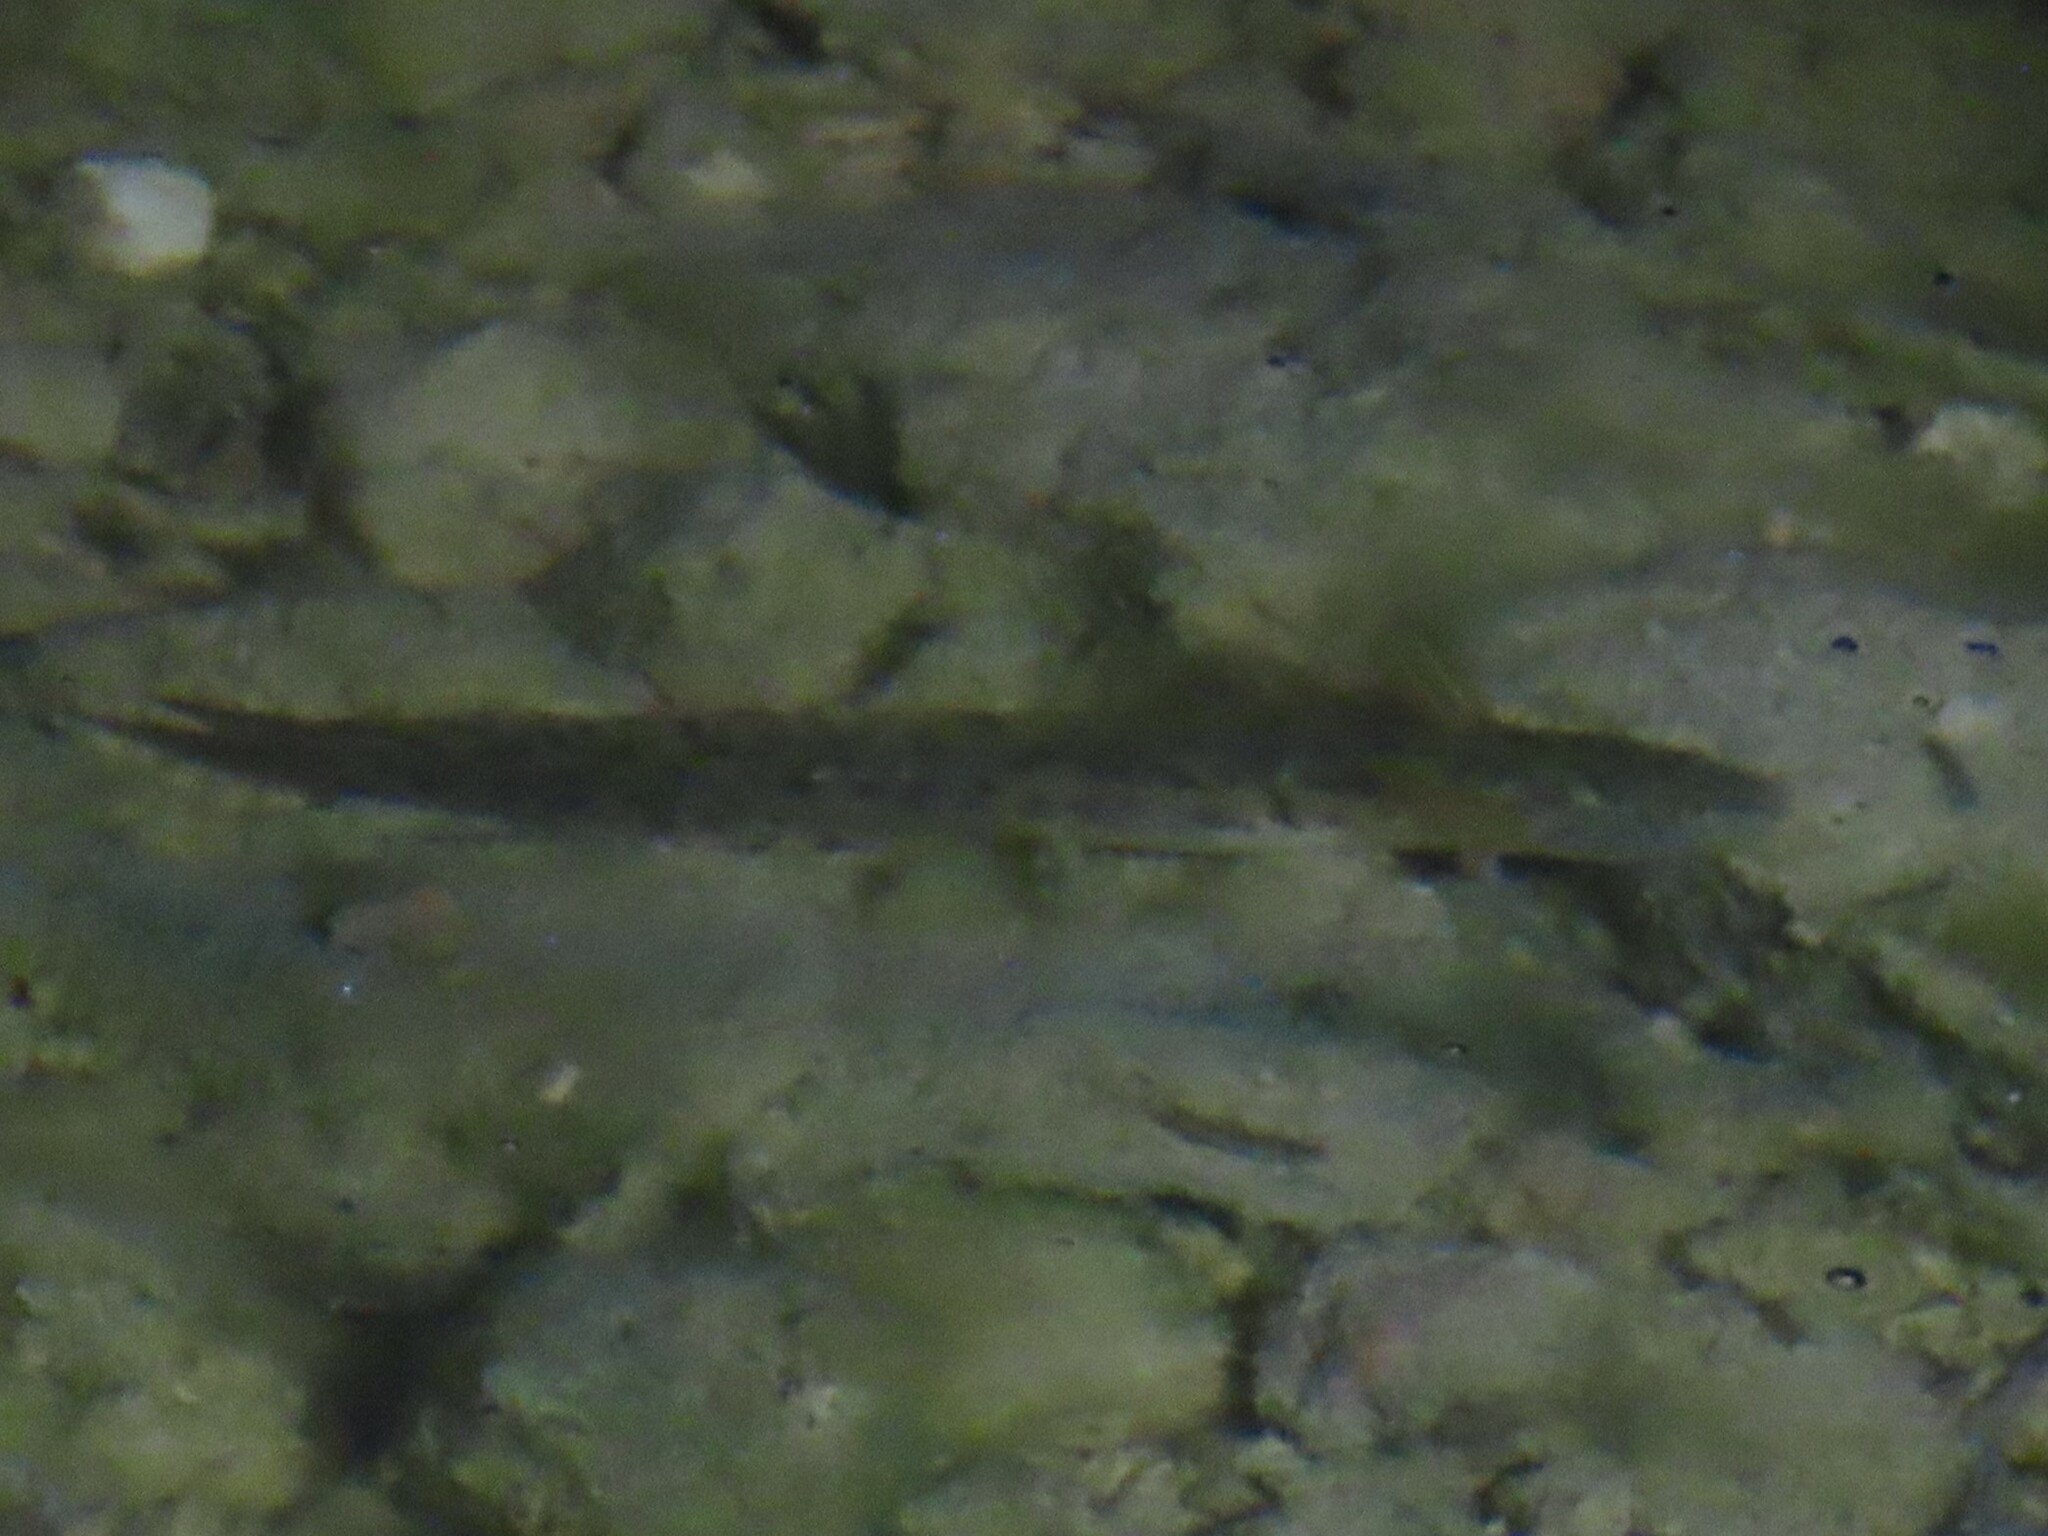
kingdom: Animalia
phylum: Chordata
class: Amphibia
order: Caudata
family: Salamandridae
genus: Pleurodeles
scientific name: Pleurodeles waltl
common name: Iberian ribbed newt
